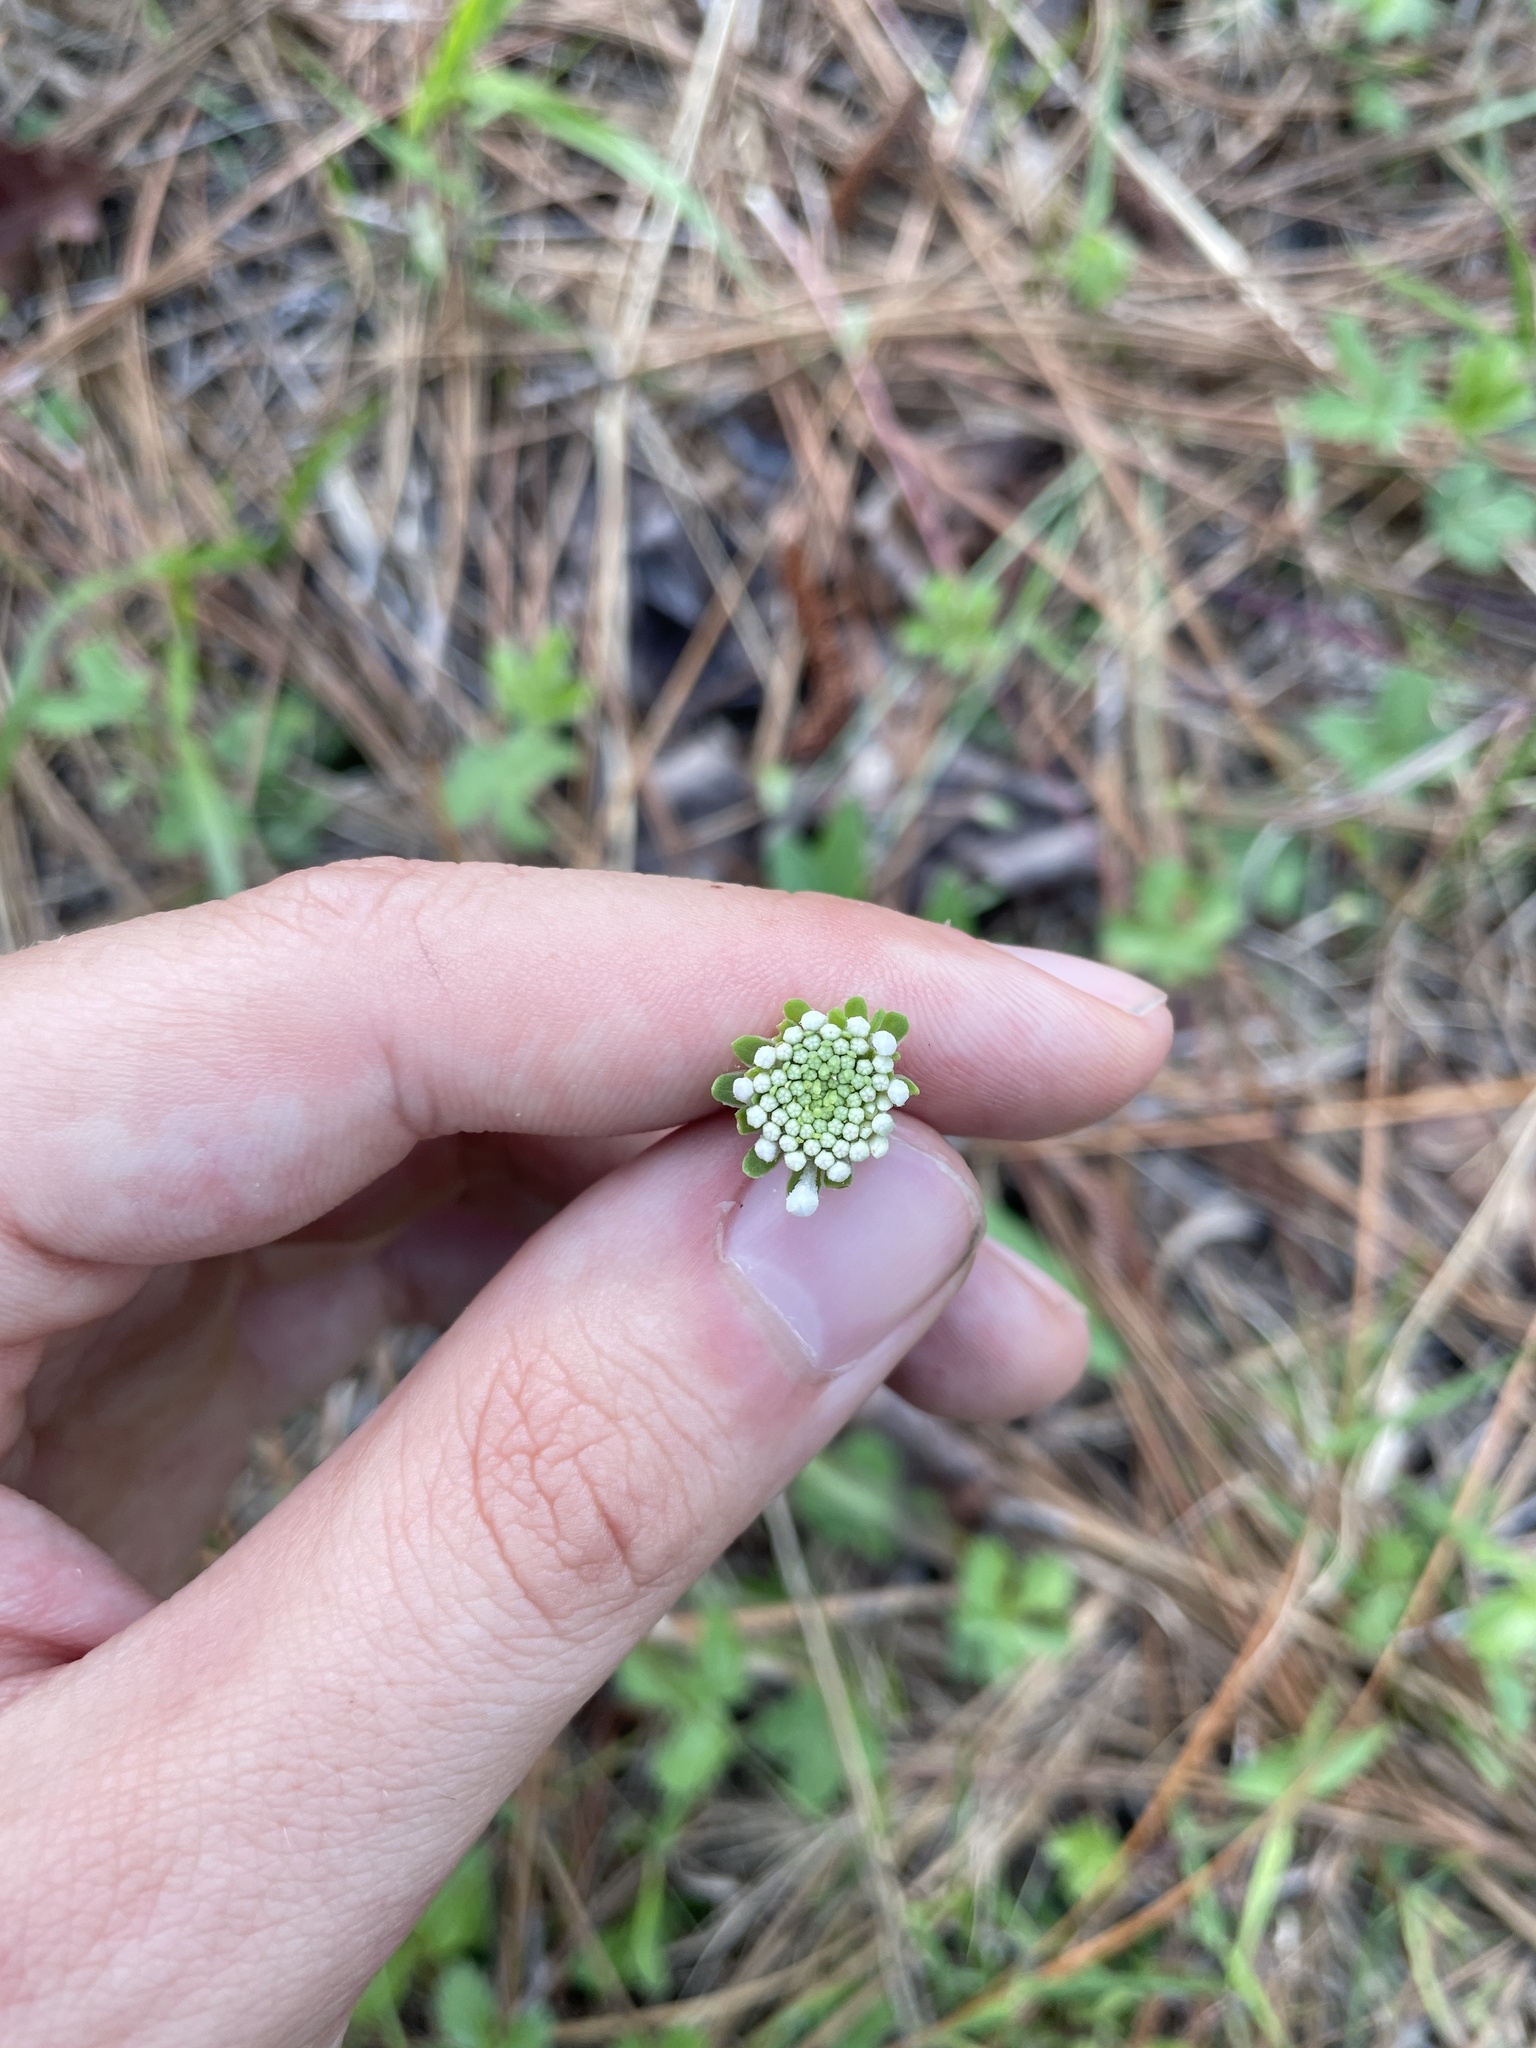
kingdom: Plantae
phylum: Tracheophyta
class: Magnoliopsida
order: Asterales
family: Asteraceae
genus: Marshallia
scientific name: Marshallia obovata
